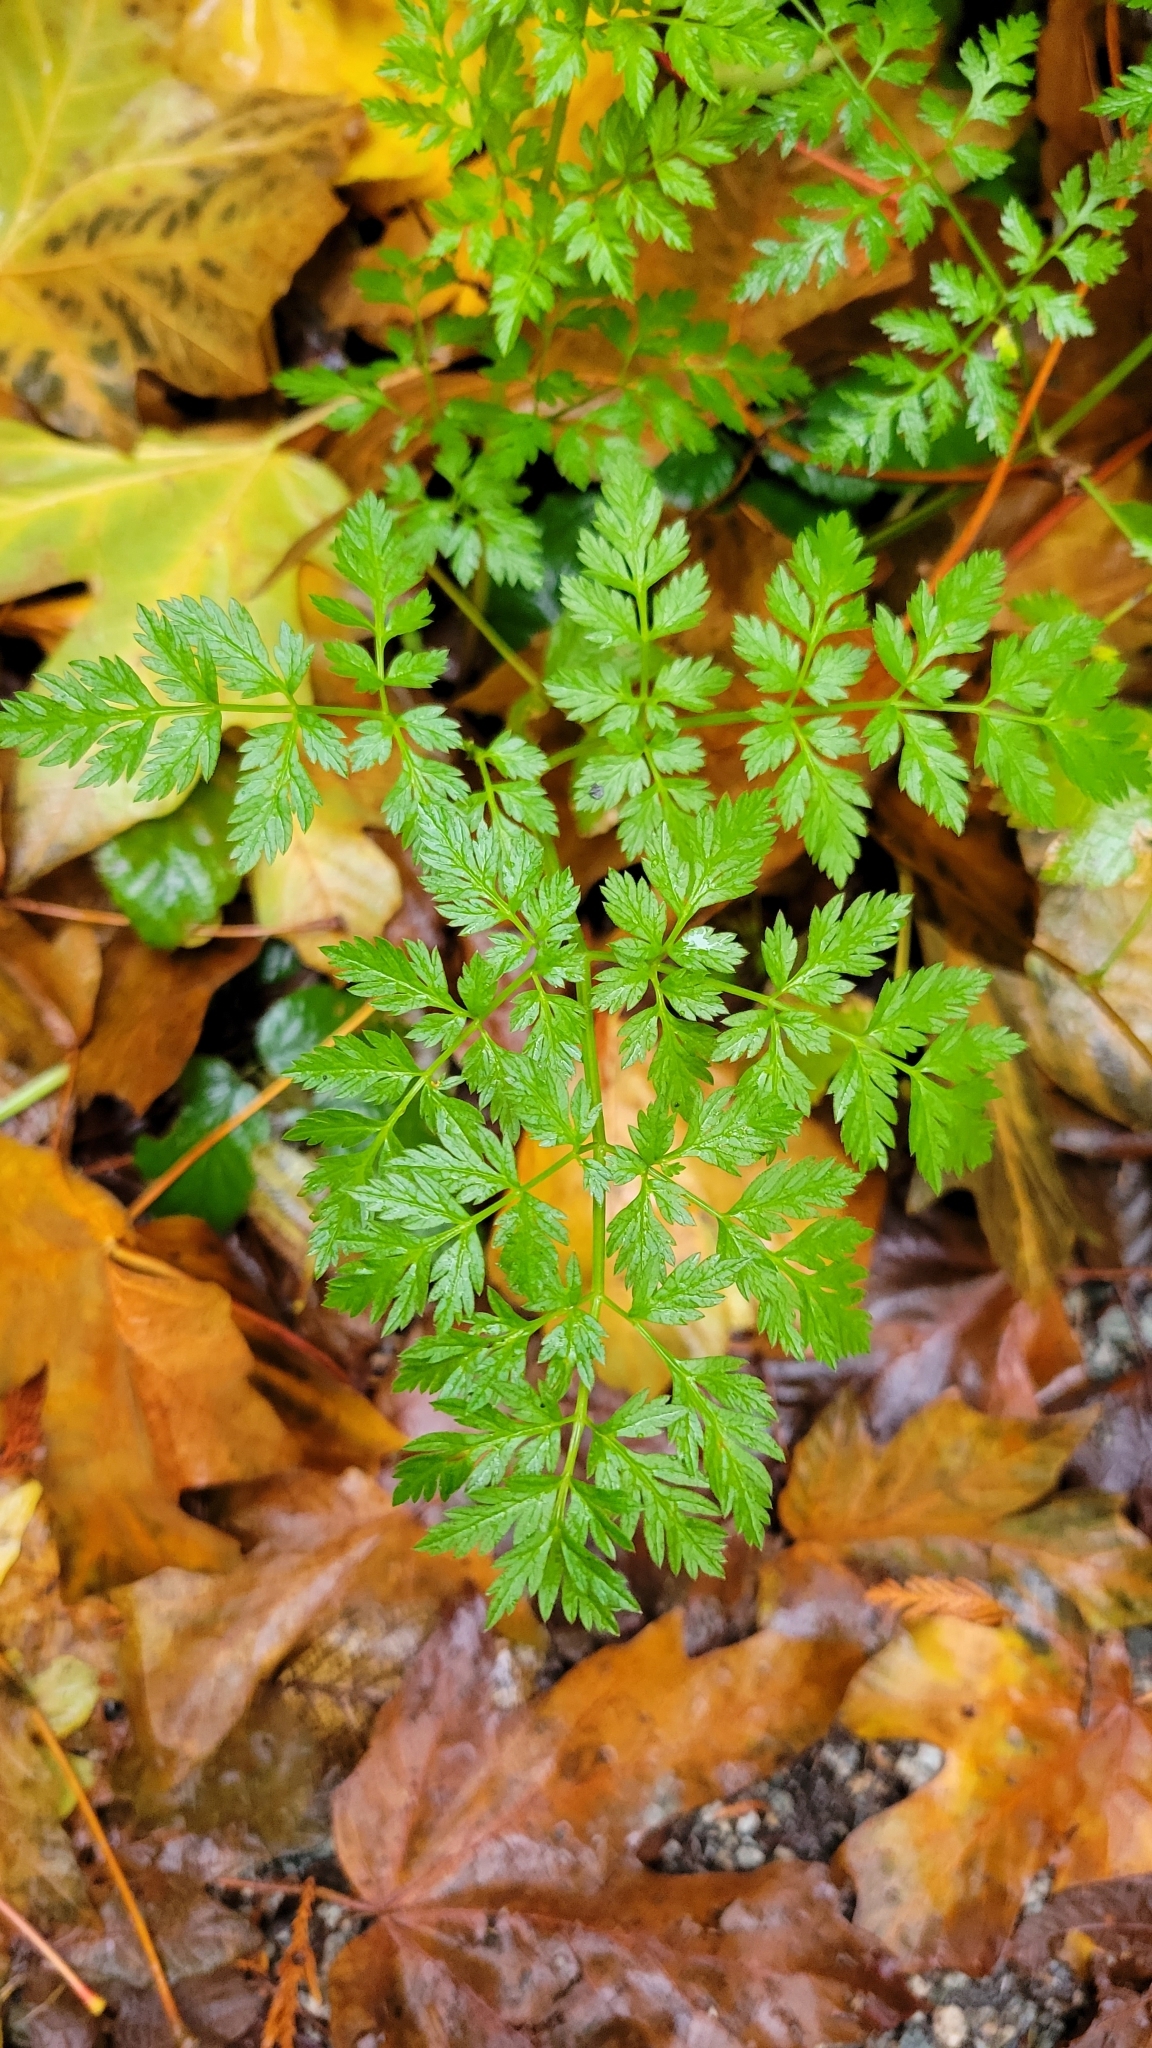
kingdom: Plantae
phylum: Tracheophyta
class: Magnoliopsida
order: Apiales
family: Apiaceae
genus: Anthriscus
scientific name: Anthriscus sylvestris
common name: Cow parsley
